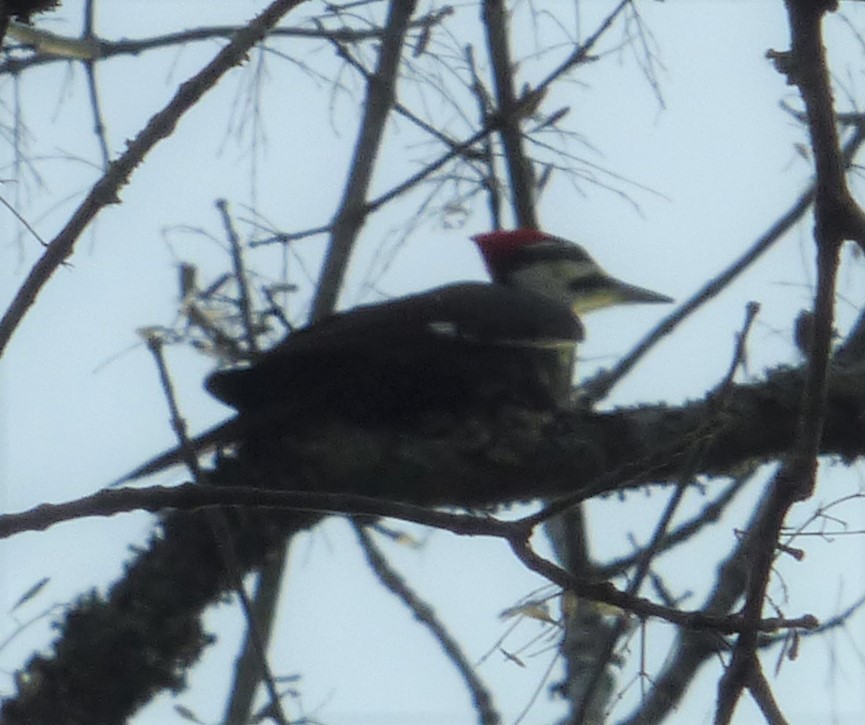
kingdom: Animalia
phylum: Chordata
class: Aves
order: Piciformes
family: Picidae
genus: Dryocopus
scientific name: Dryocopus pileatus
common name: Pileated woodpecker
